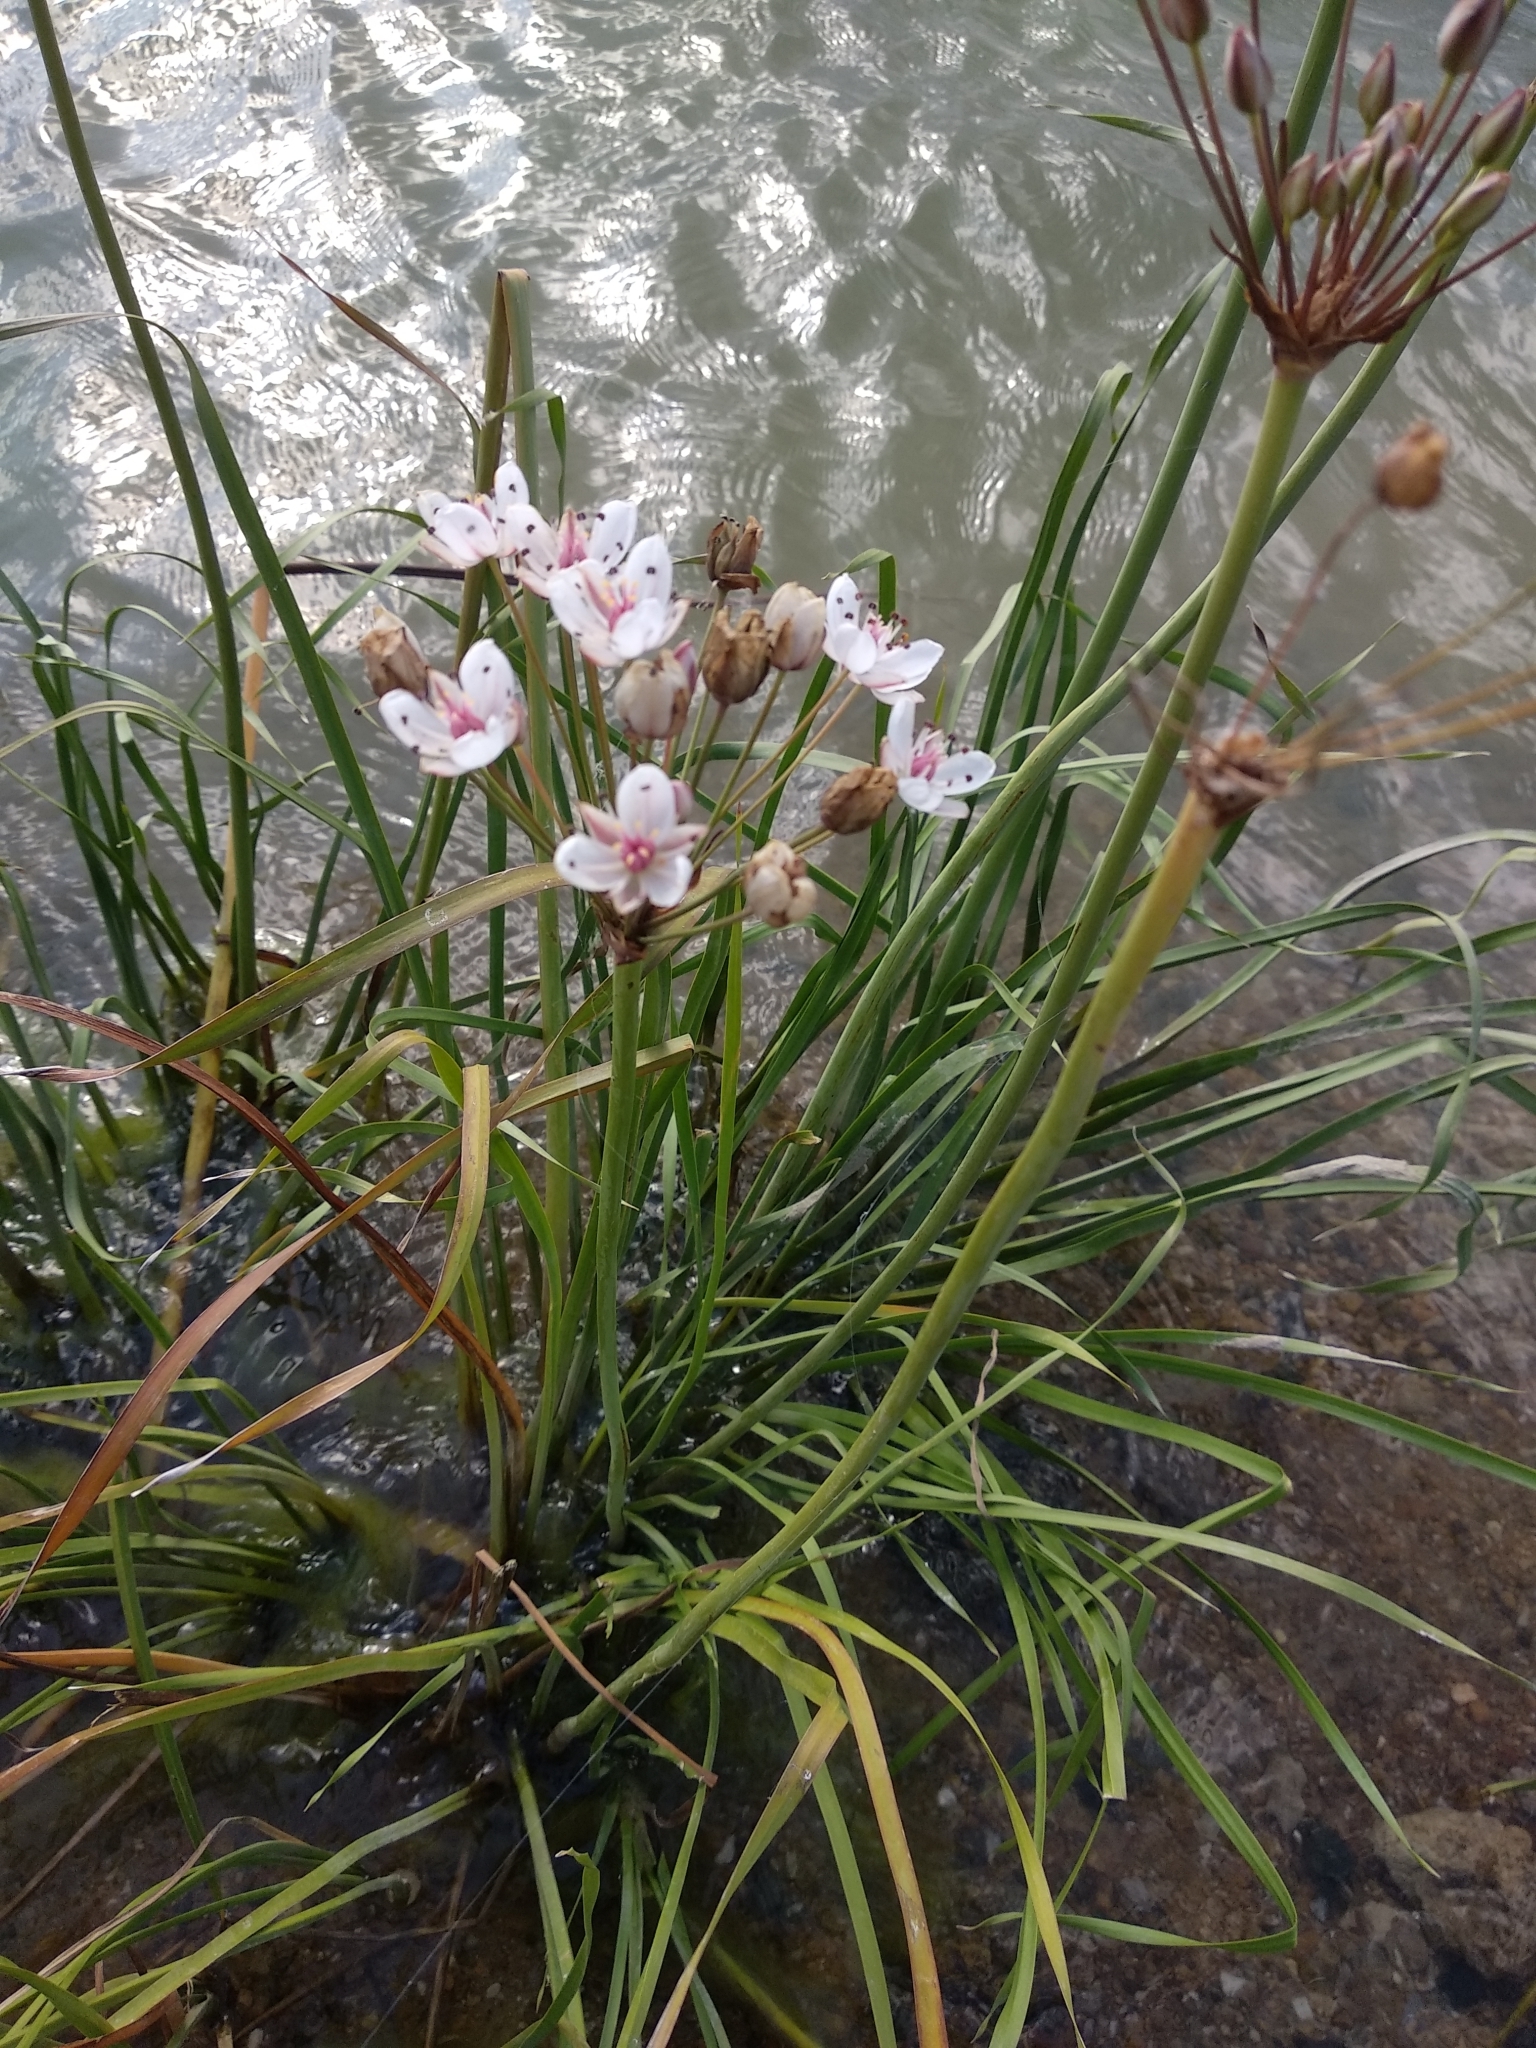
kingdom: Plantae
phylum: Tracheophyta
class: Liliopsida
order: Alismatales
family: Butomaceae
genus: Butomus
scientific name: Butomus umbellatus
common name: Flowering-rush
